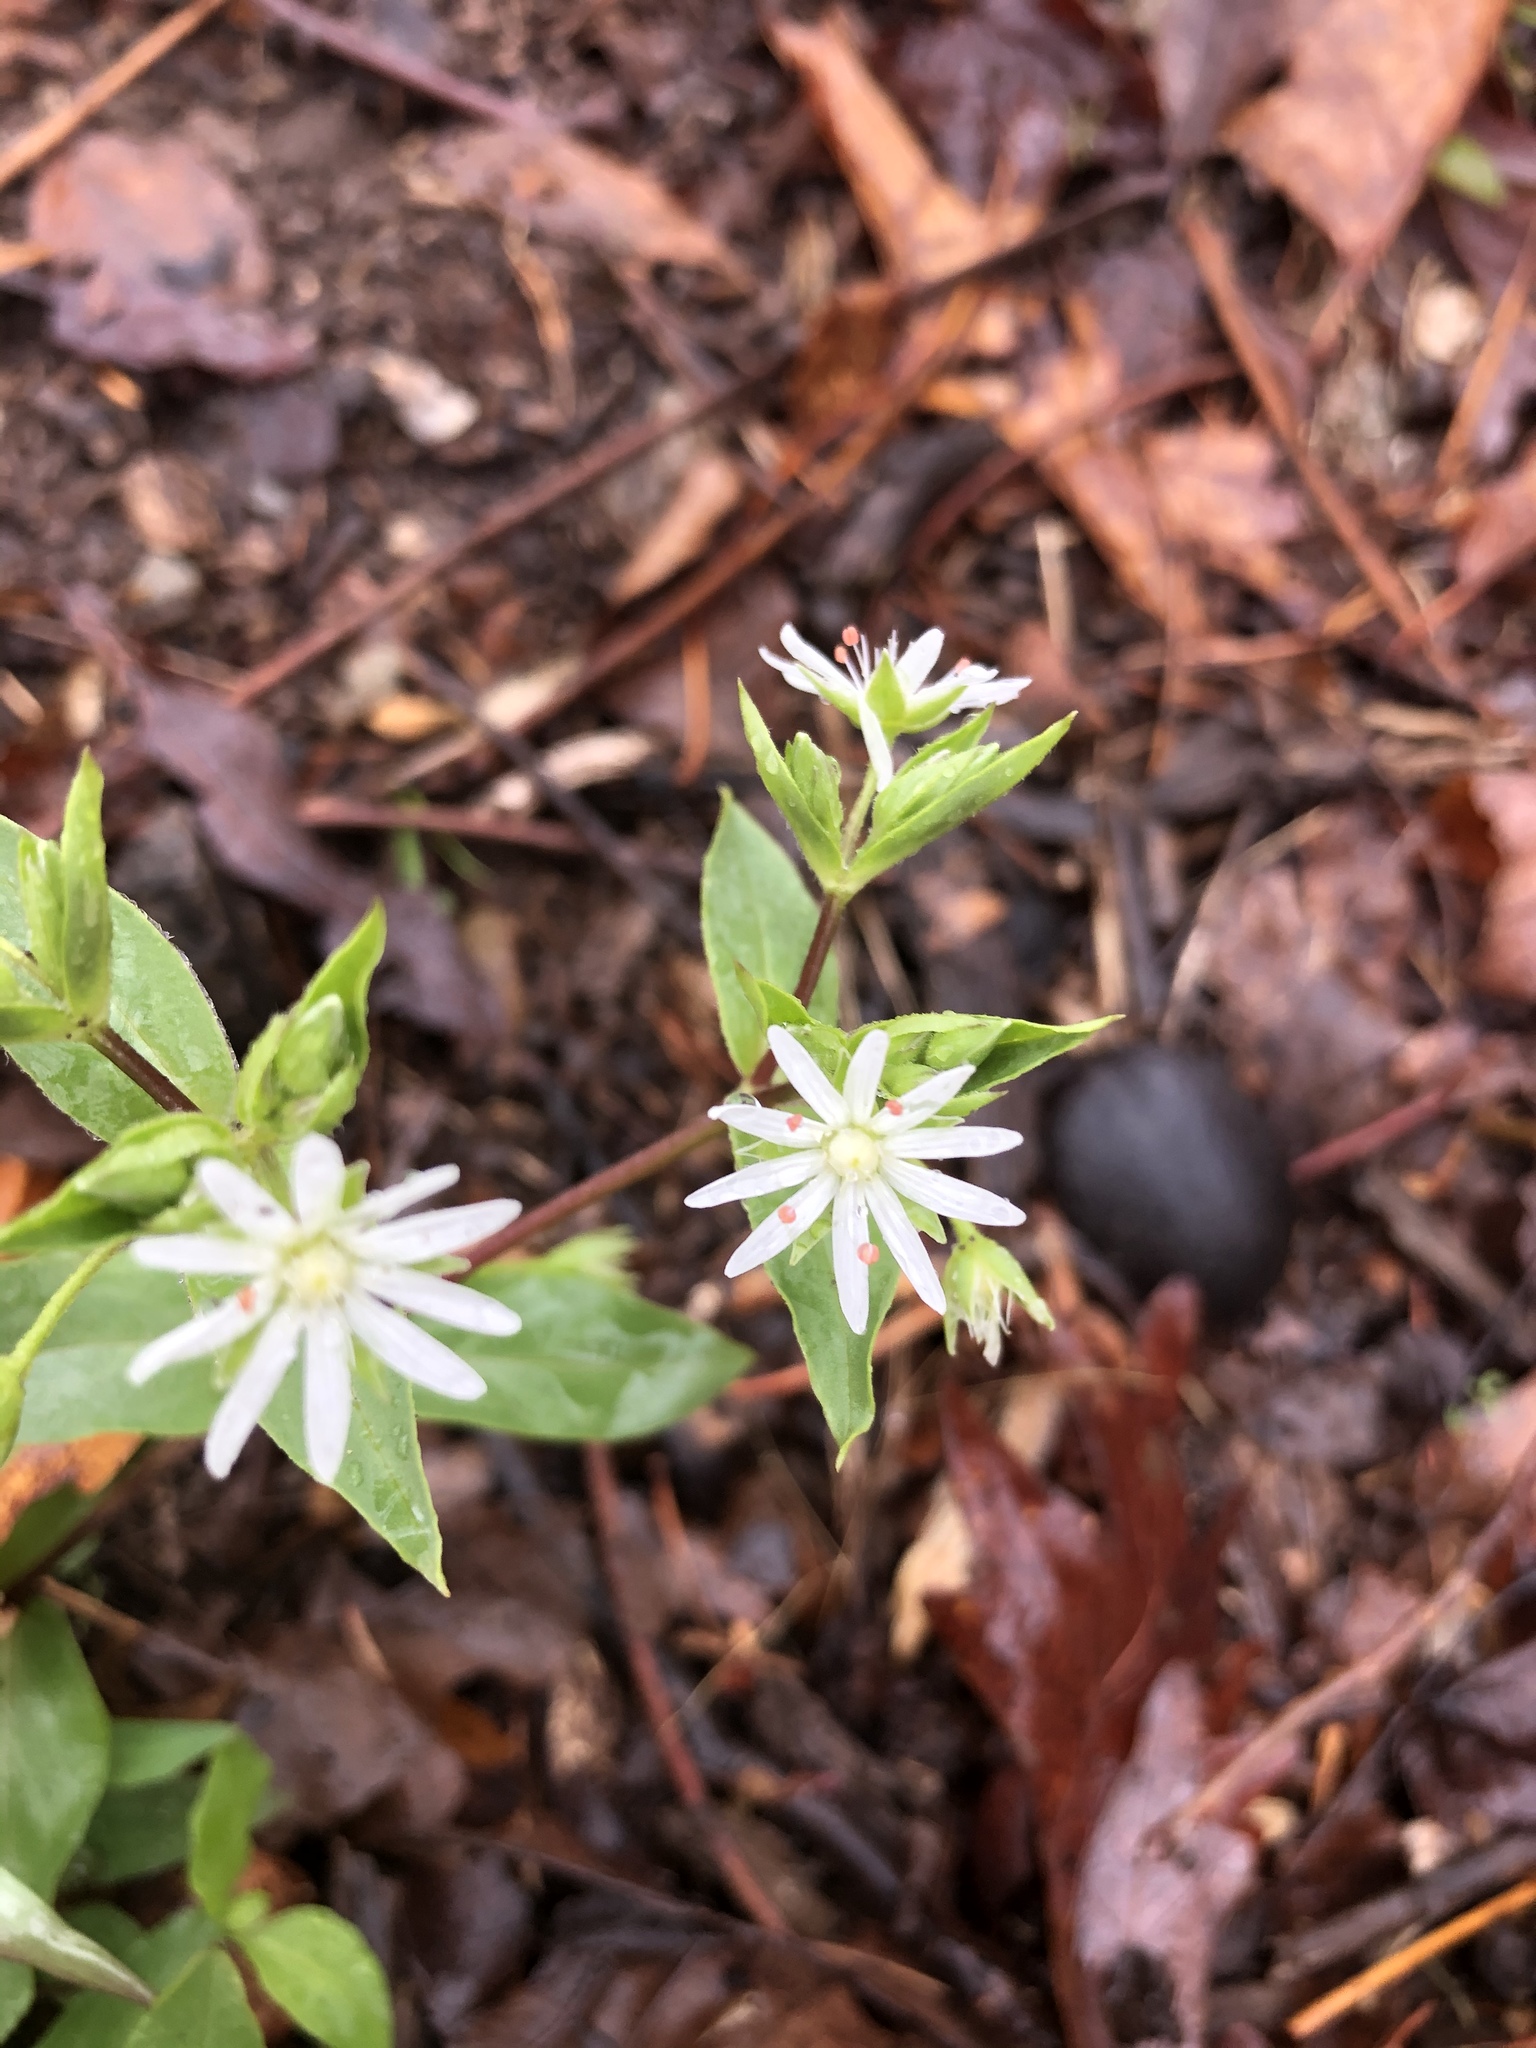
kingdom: Plantae
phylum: Tracheophyta
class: Magnoliopsida
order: Caryophyllales
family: Caryophyllaceae
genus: Stellaria
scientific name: Stellaria pubera
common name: Star chickweed
